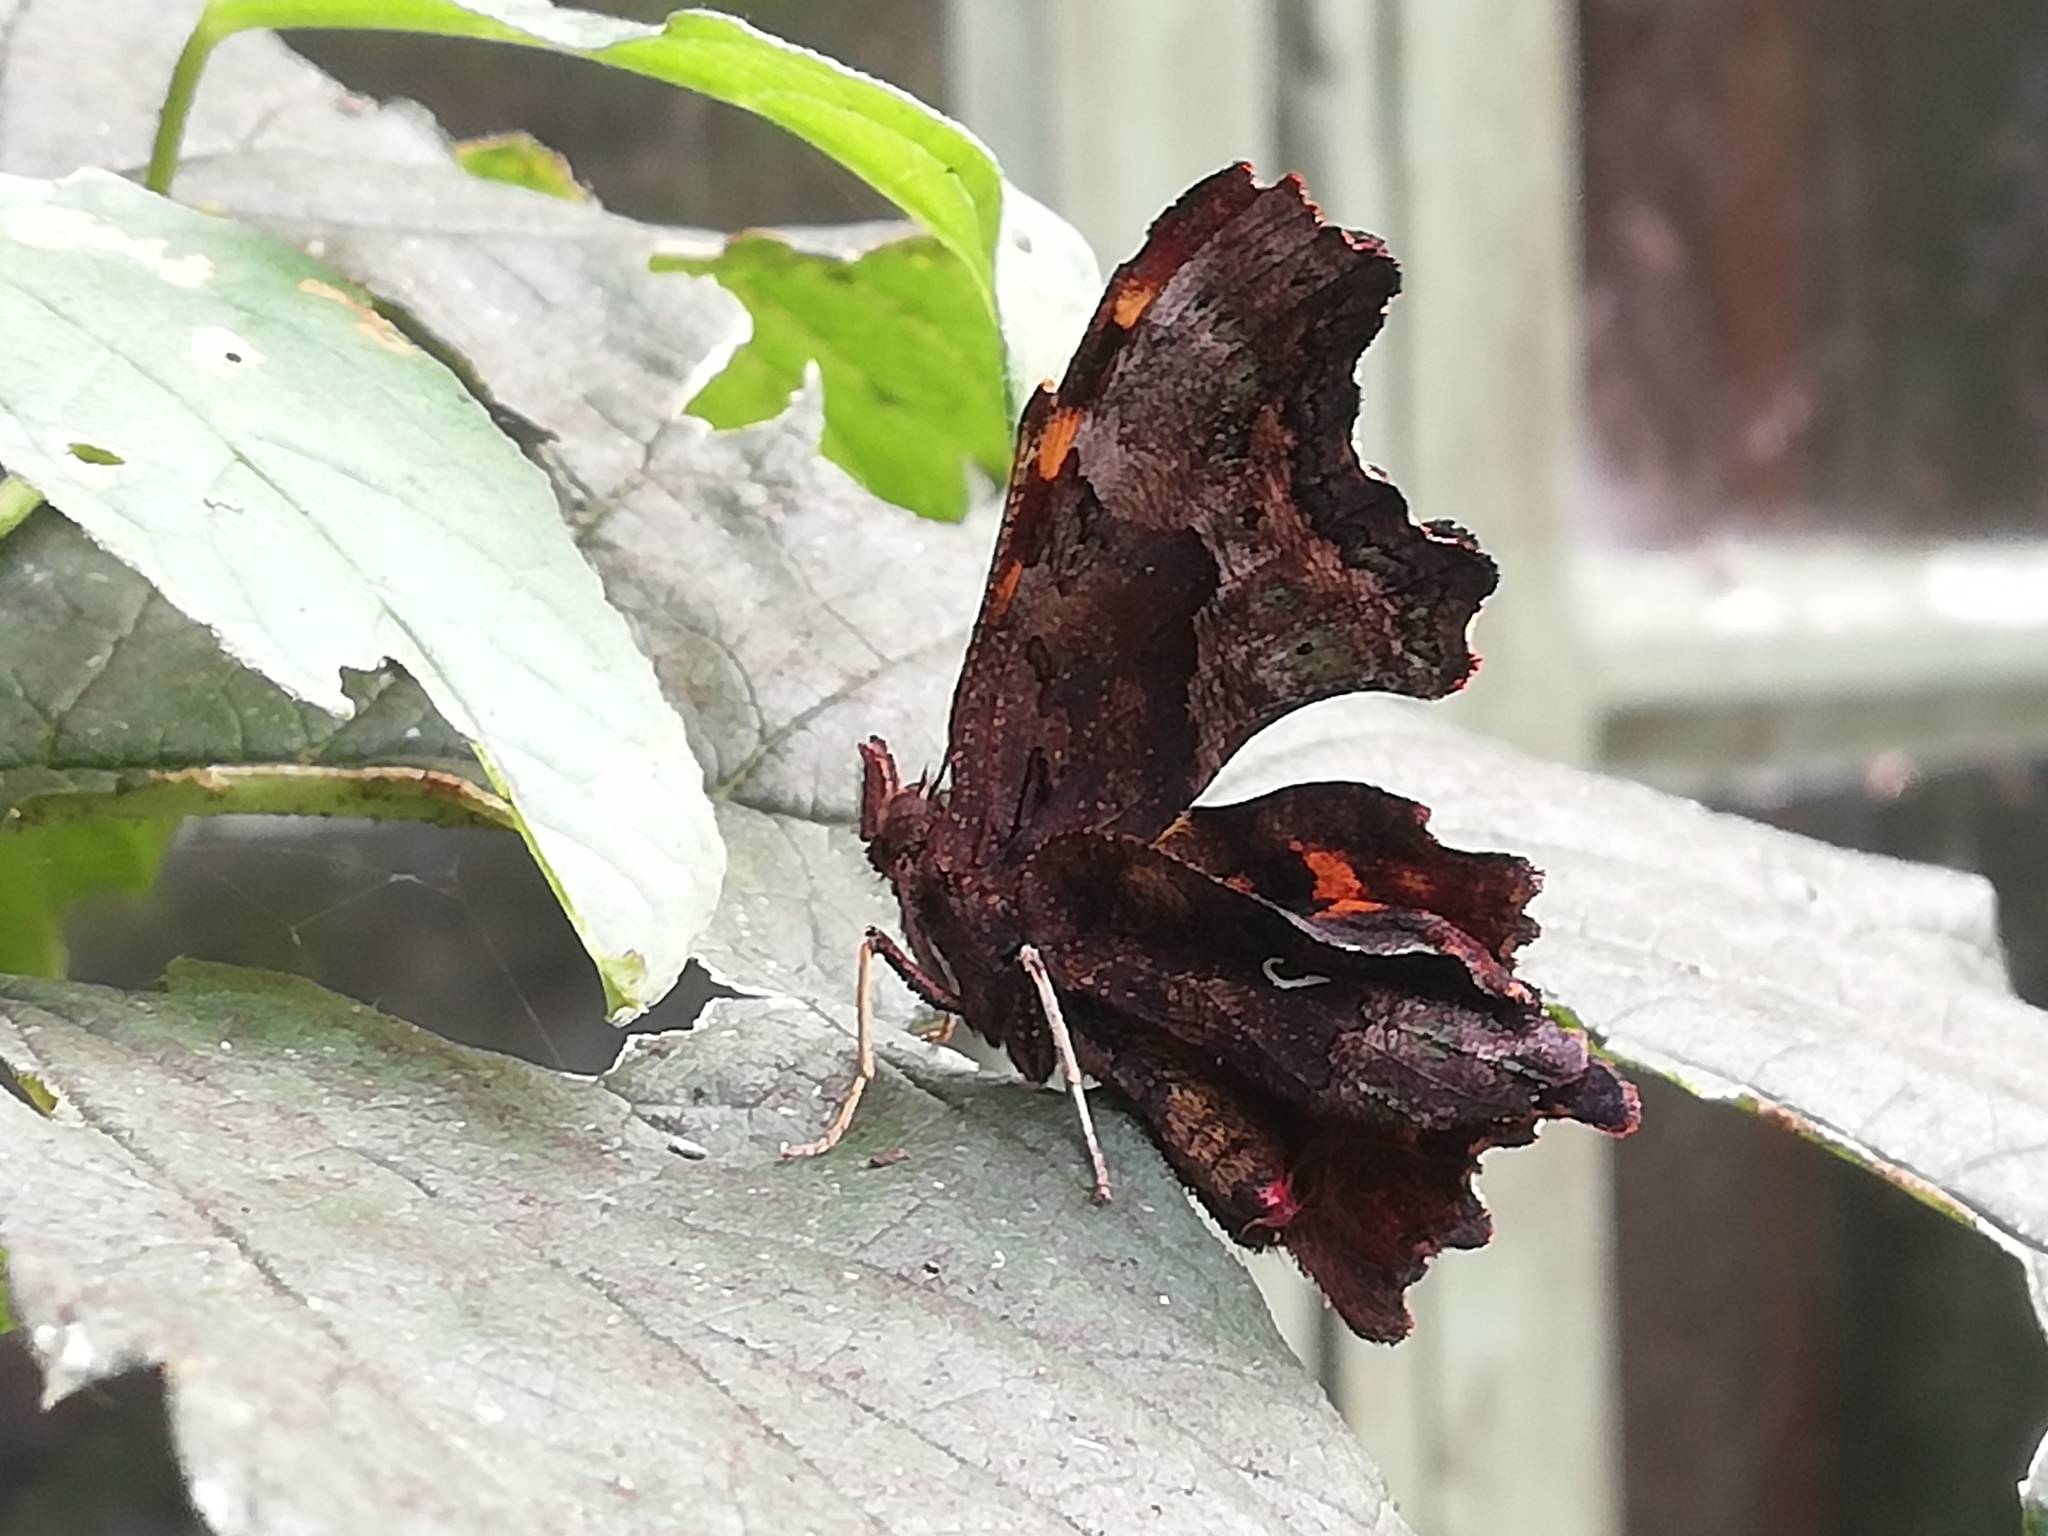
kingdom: Animalia
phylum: Arthropoda
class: Insecta
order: Lepidoptera
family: Nymphalidae
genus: Polygonia
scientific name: Polygonia c-album
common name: Comma
